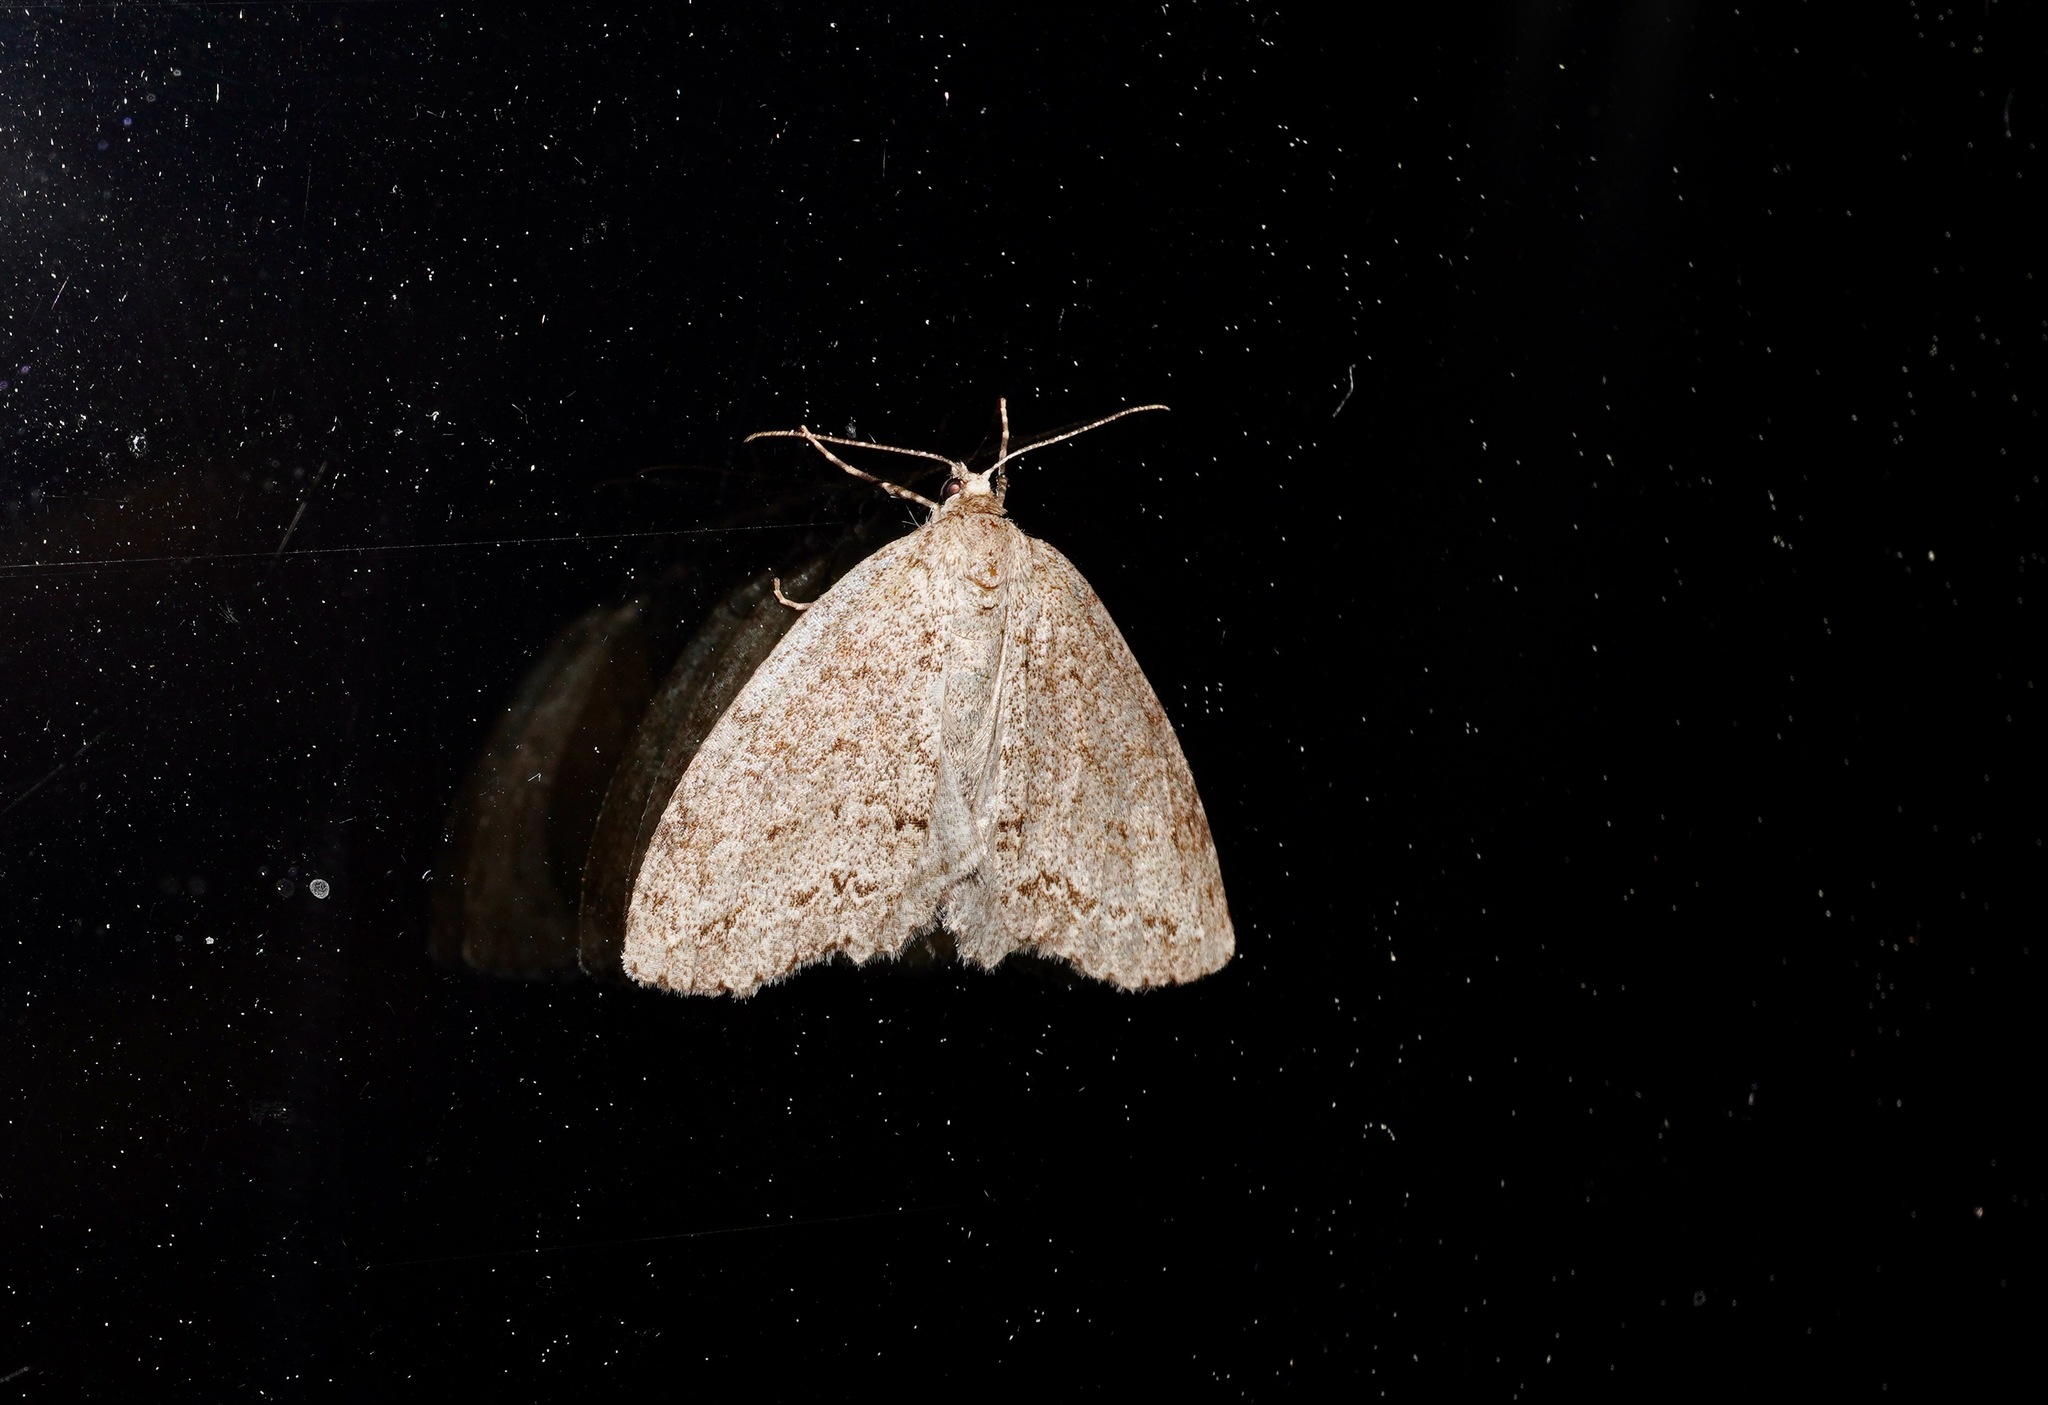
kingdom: Animalia
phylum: Arthropoda
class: Insecta
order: Lepidoptera
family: Geometridae
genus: Pseudocoremia
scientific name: Pseudocoremia fenerata
